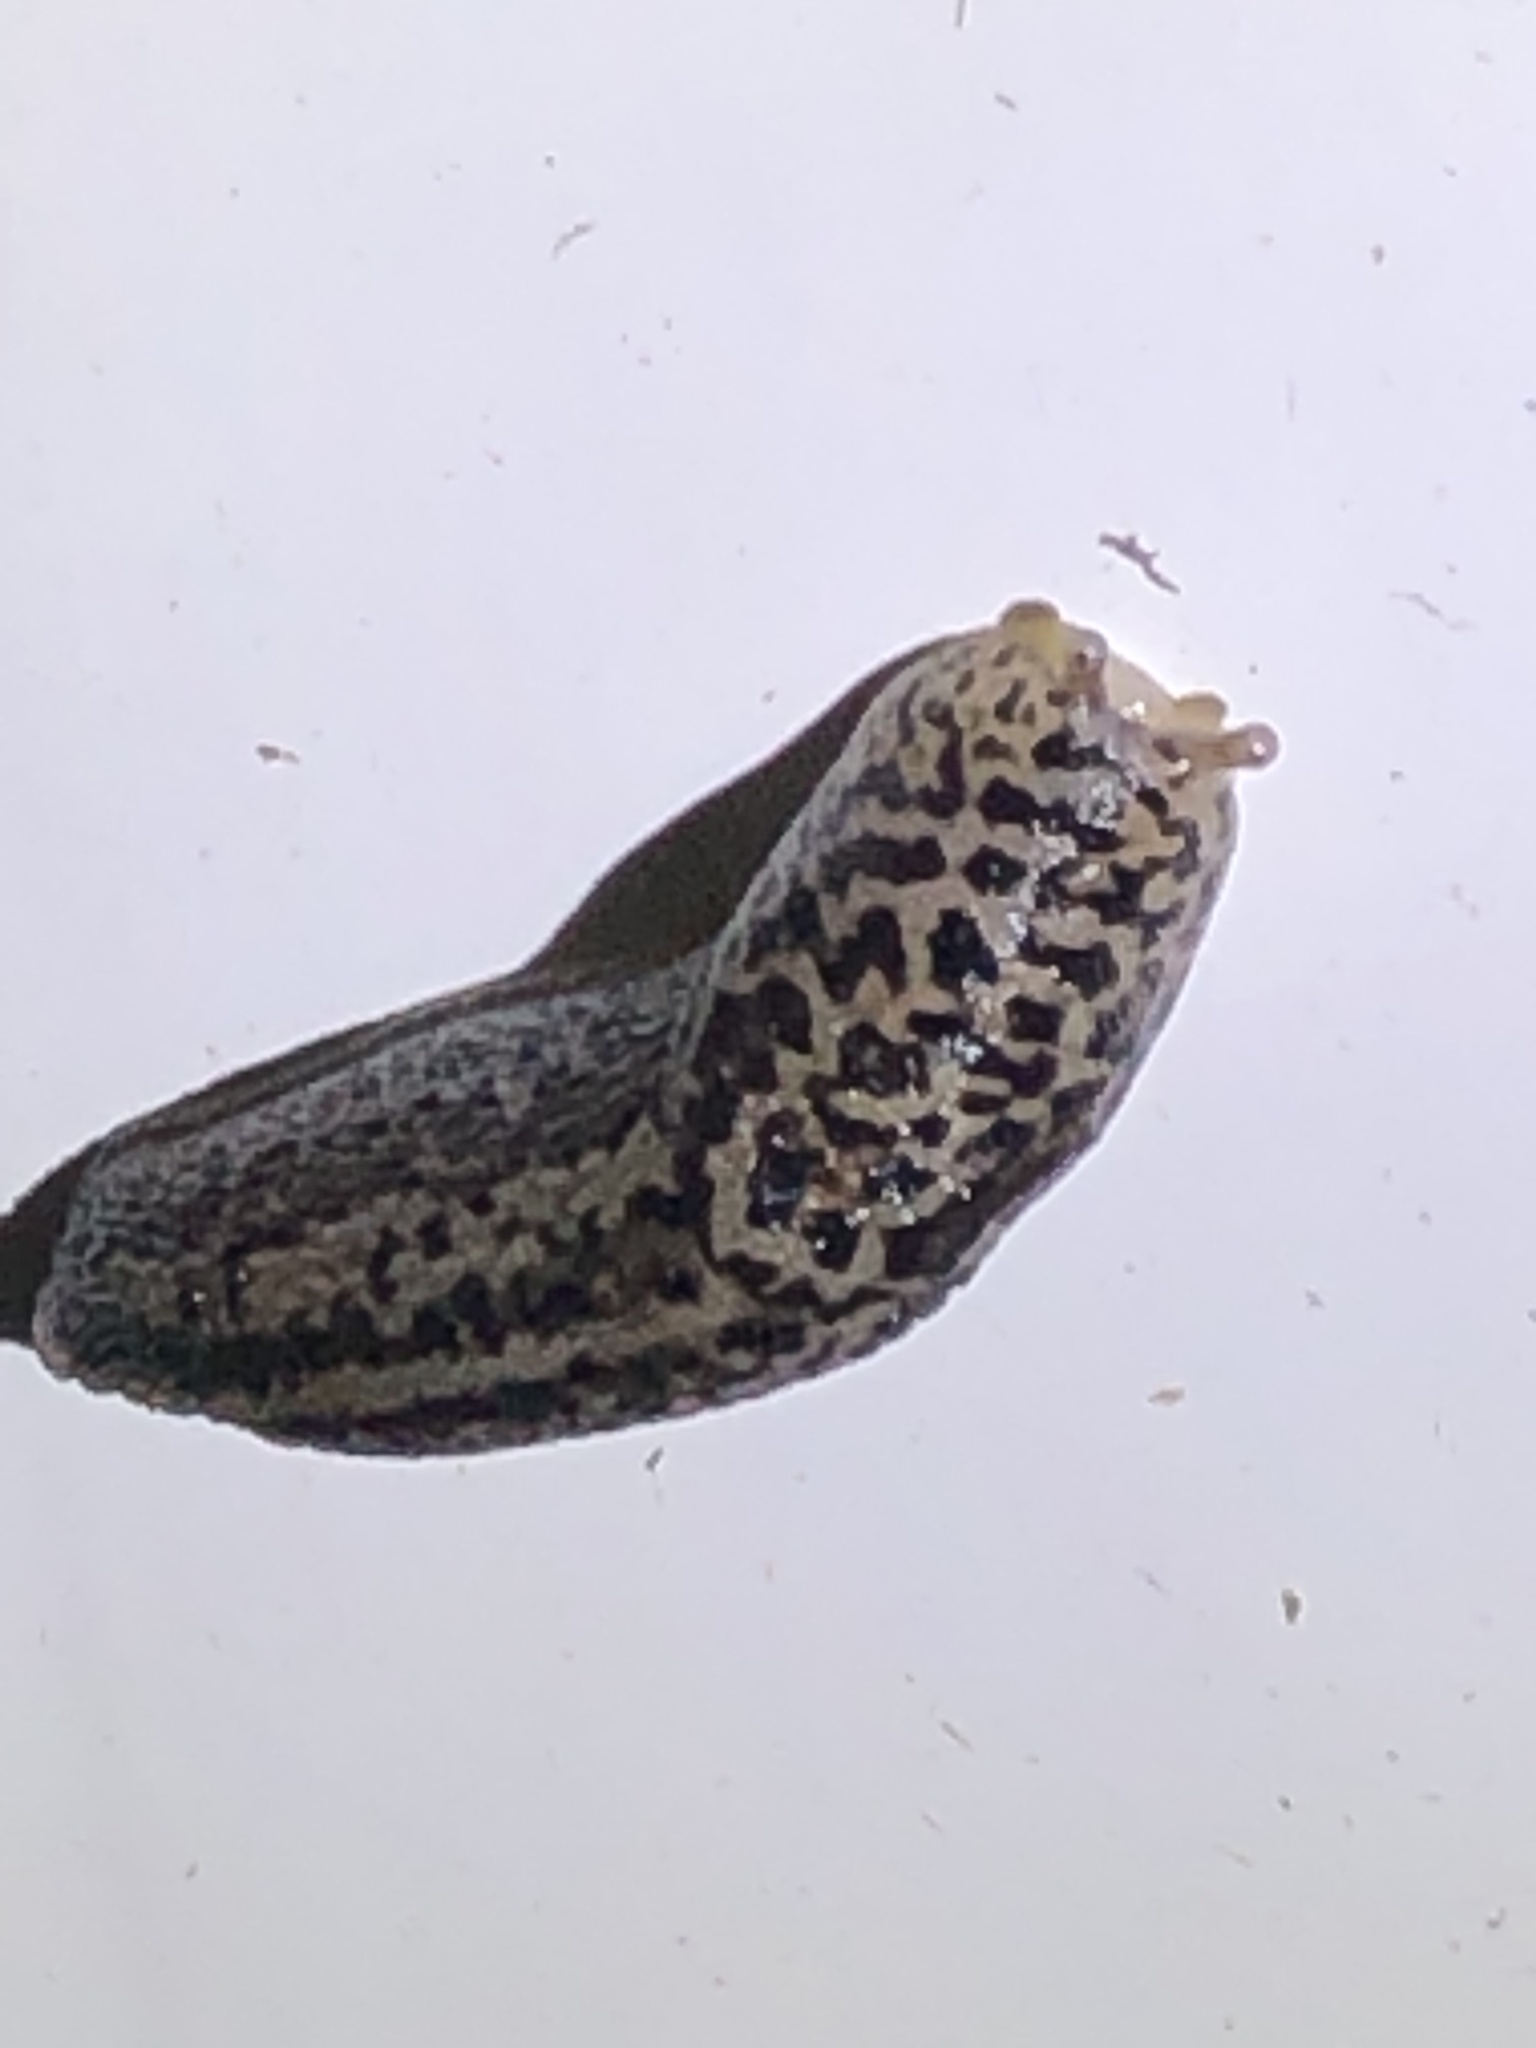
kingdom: Animalia
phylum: Mollusca
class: Gastropoda
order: Stylommatophora
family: Limacidae
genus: Limax
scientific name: Limax maximus
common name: Great grey slug
